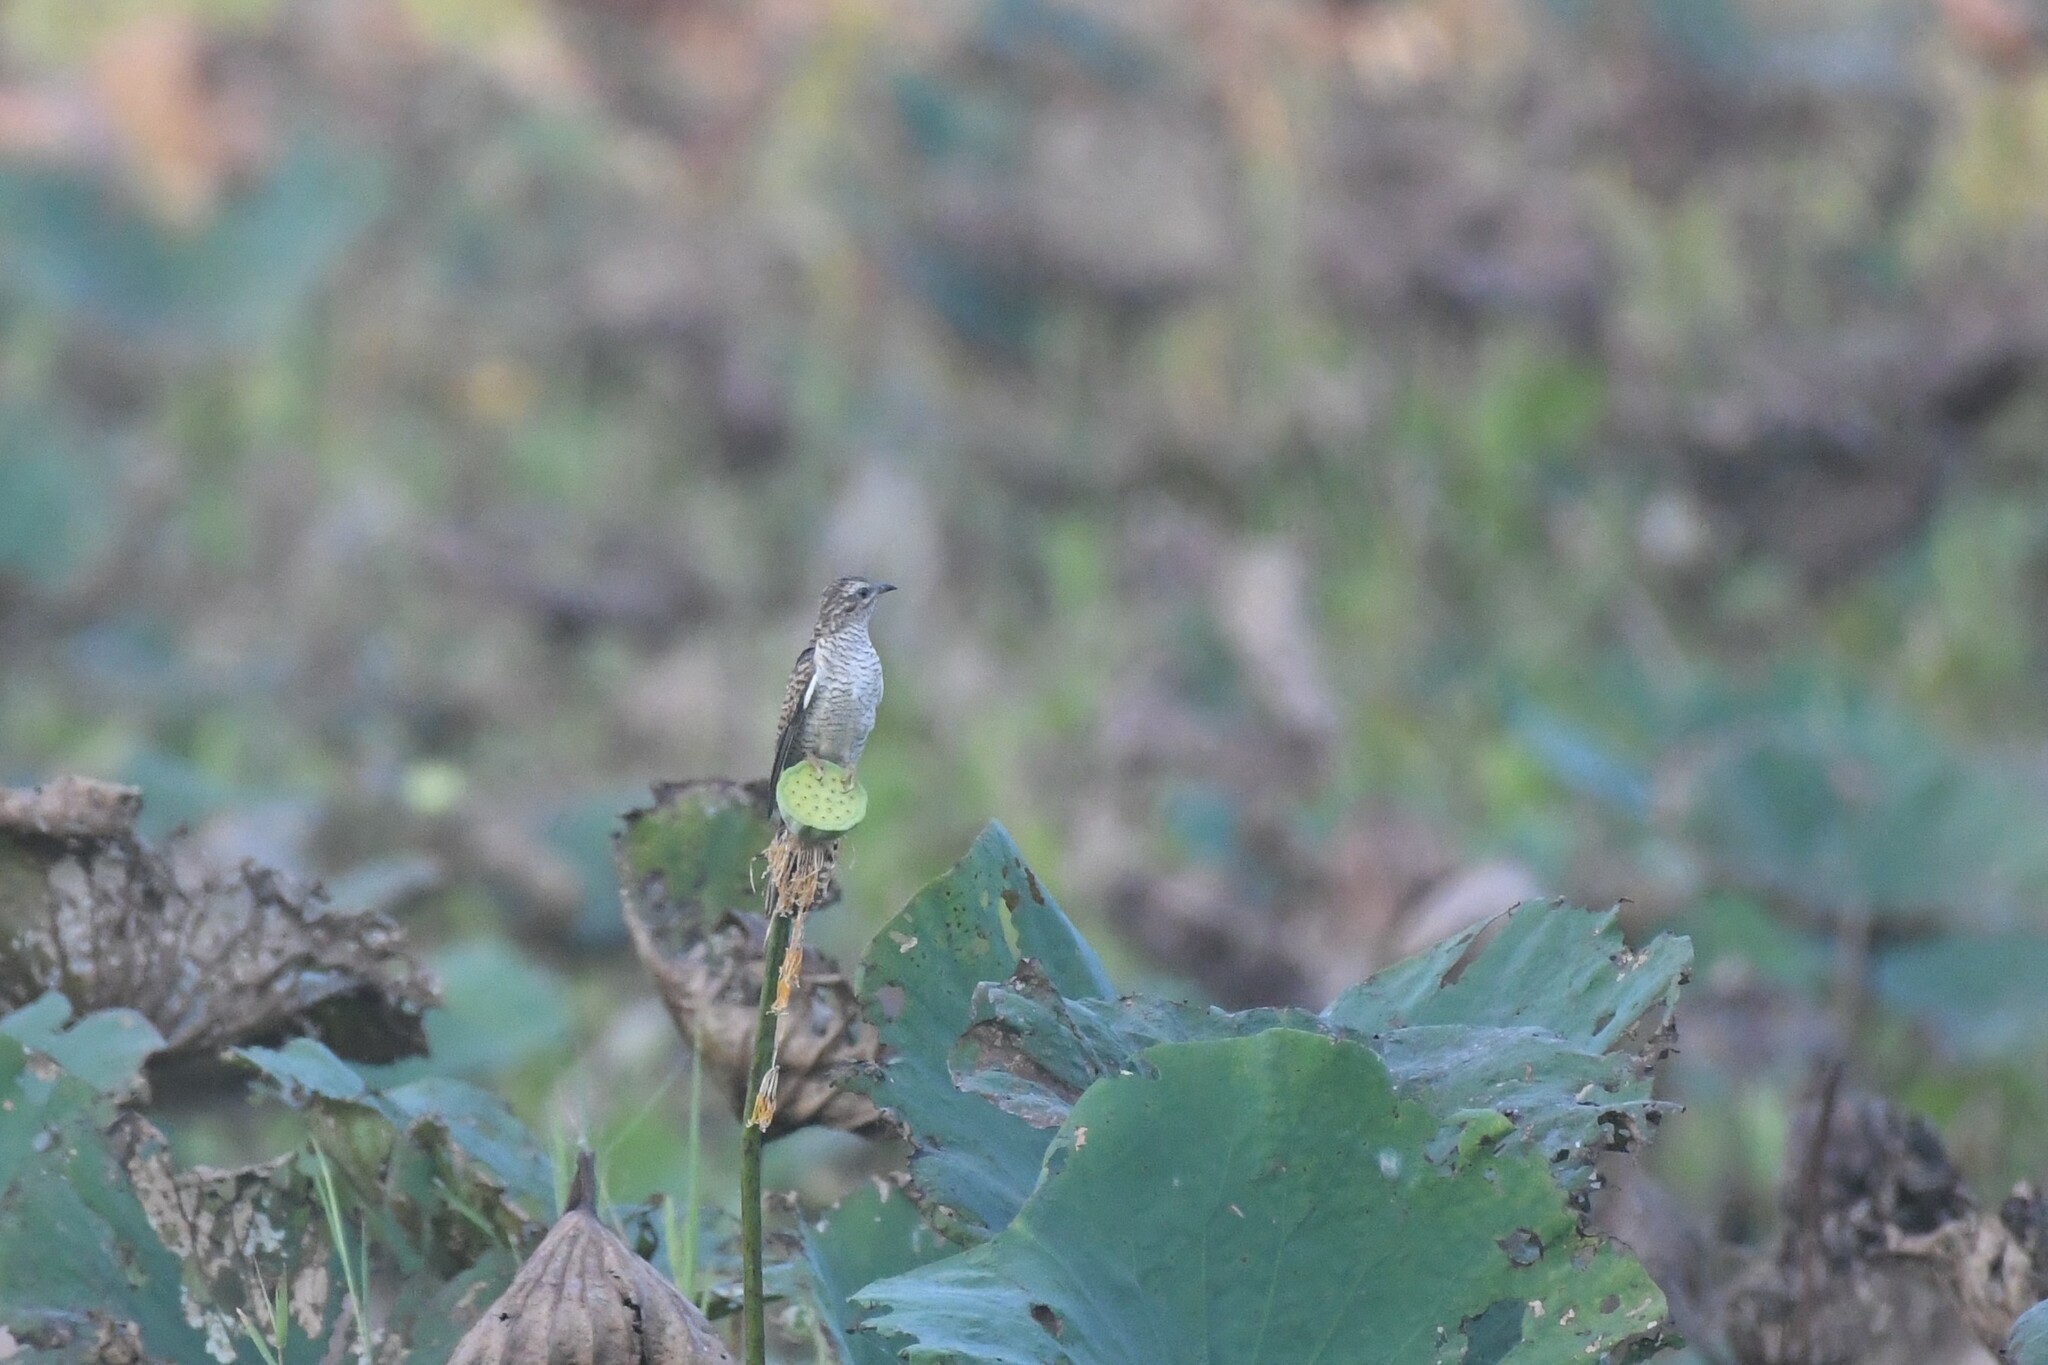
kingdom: Animalia
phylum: Chordata
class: Aves
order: Cuculiformes
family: Cuculidae
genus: Cacomantis
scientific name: Cacomantis merulinus
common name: Plaintive cuckoo
